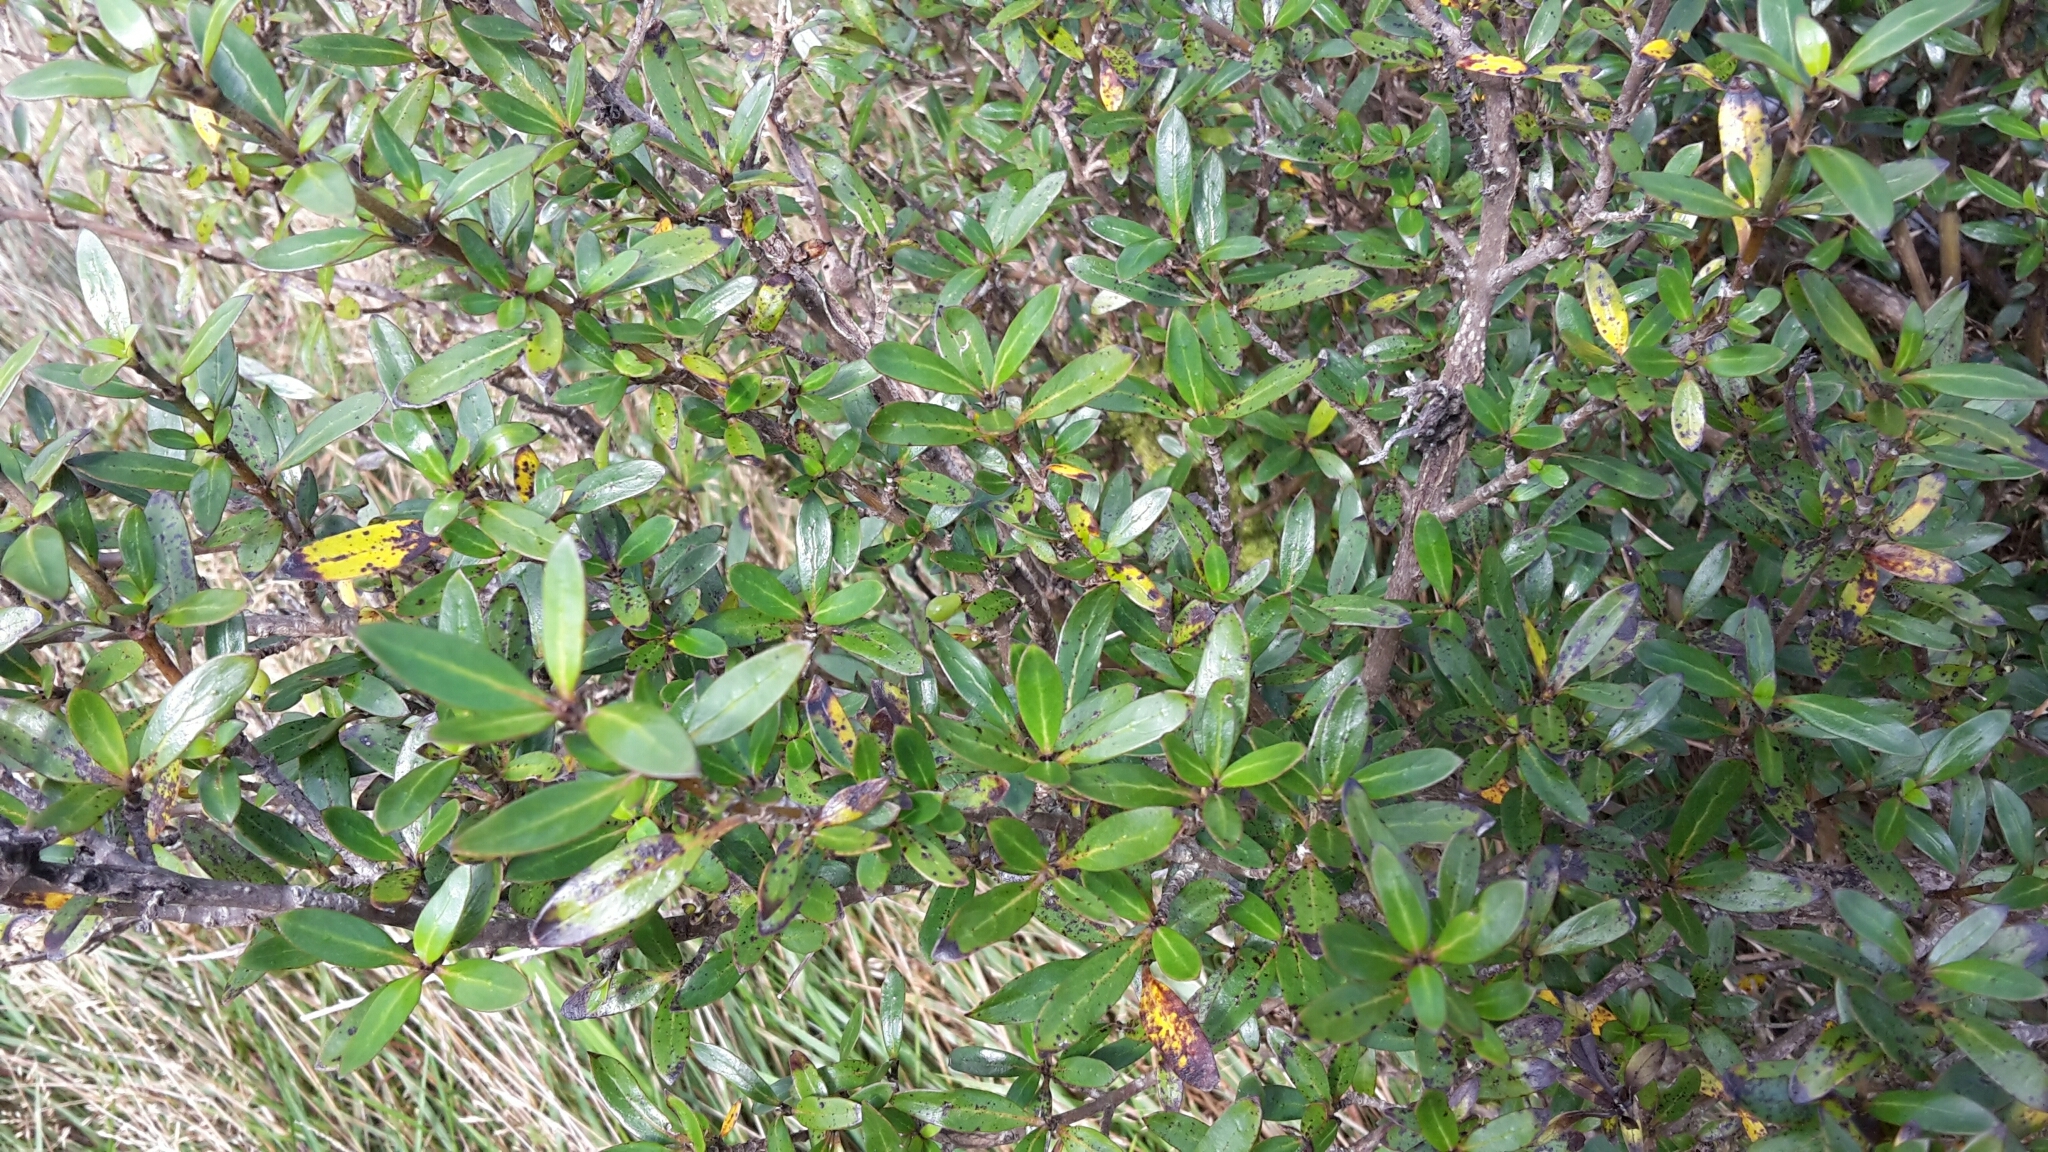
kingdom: Plantae
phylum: Tracheophyta
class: Magnoliopsida
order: Gentianales
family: Rubiaceae
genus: Coprosma
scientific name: Coprosma cunninghamii
